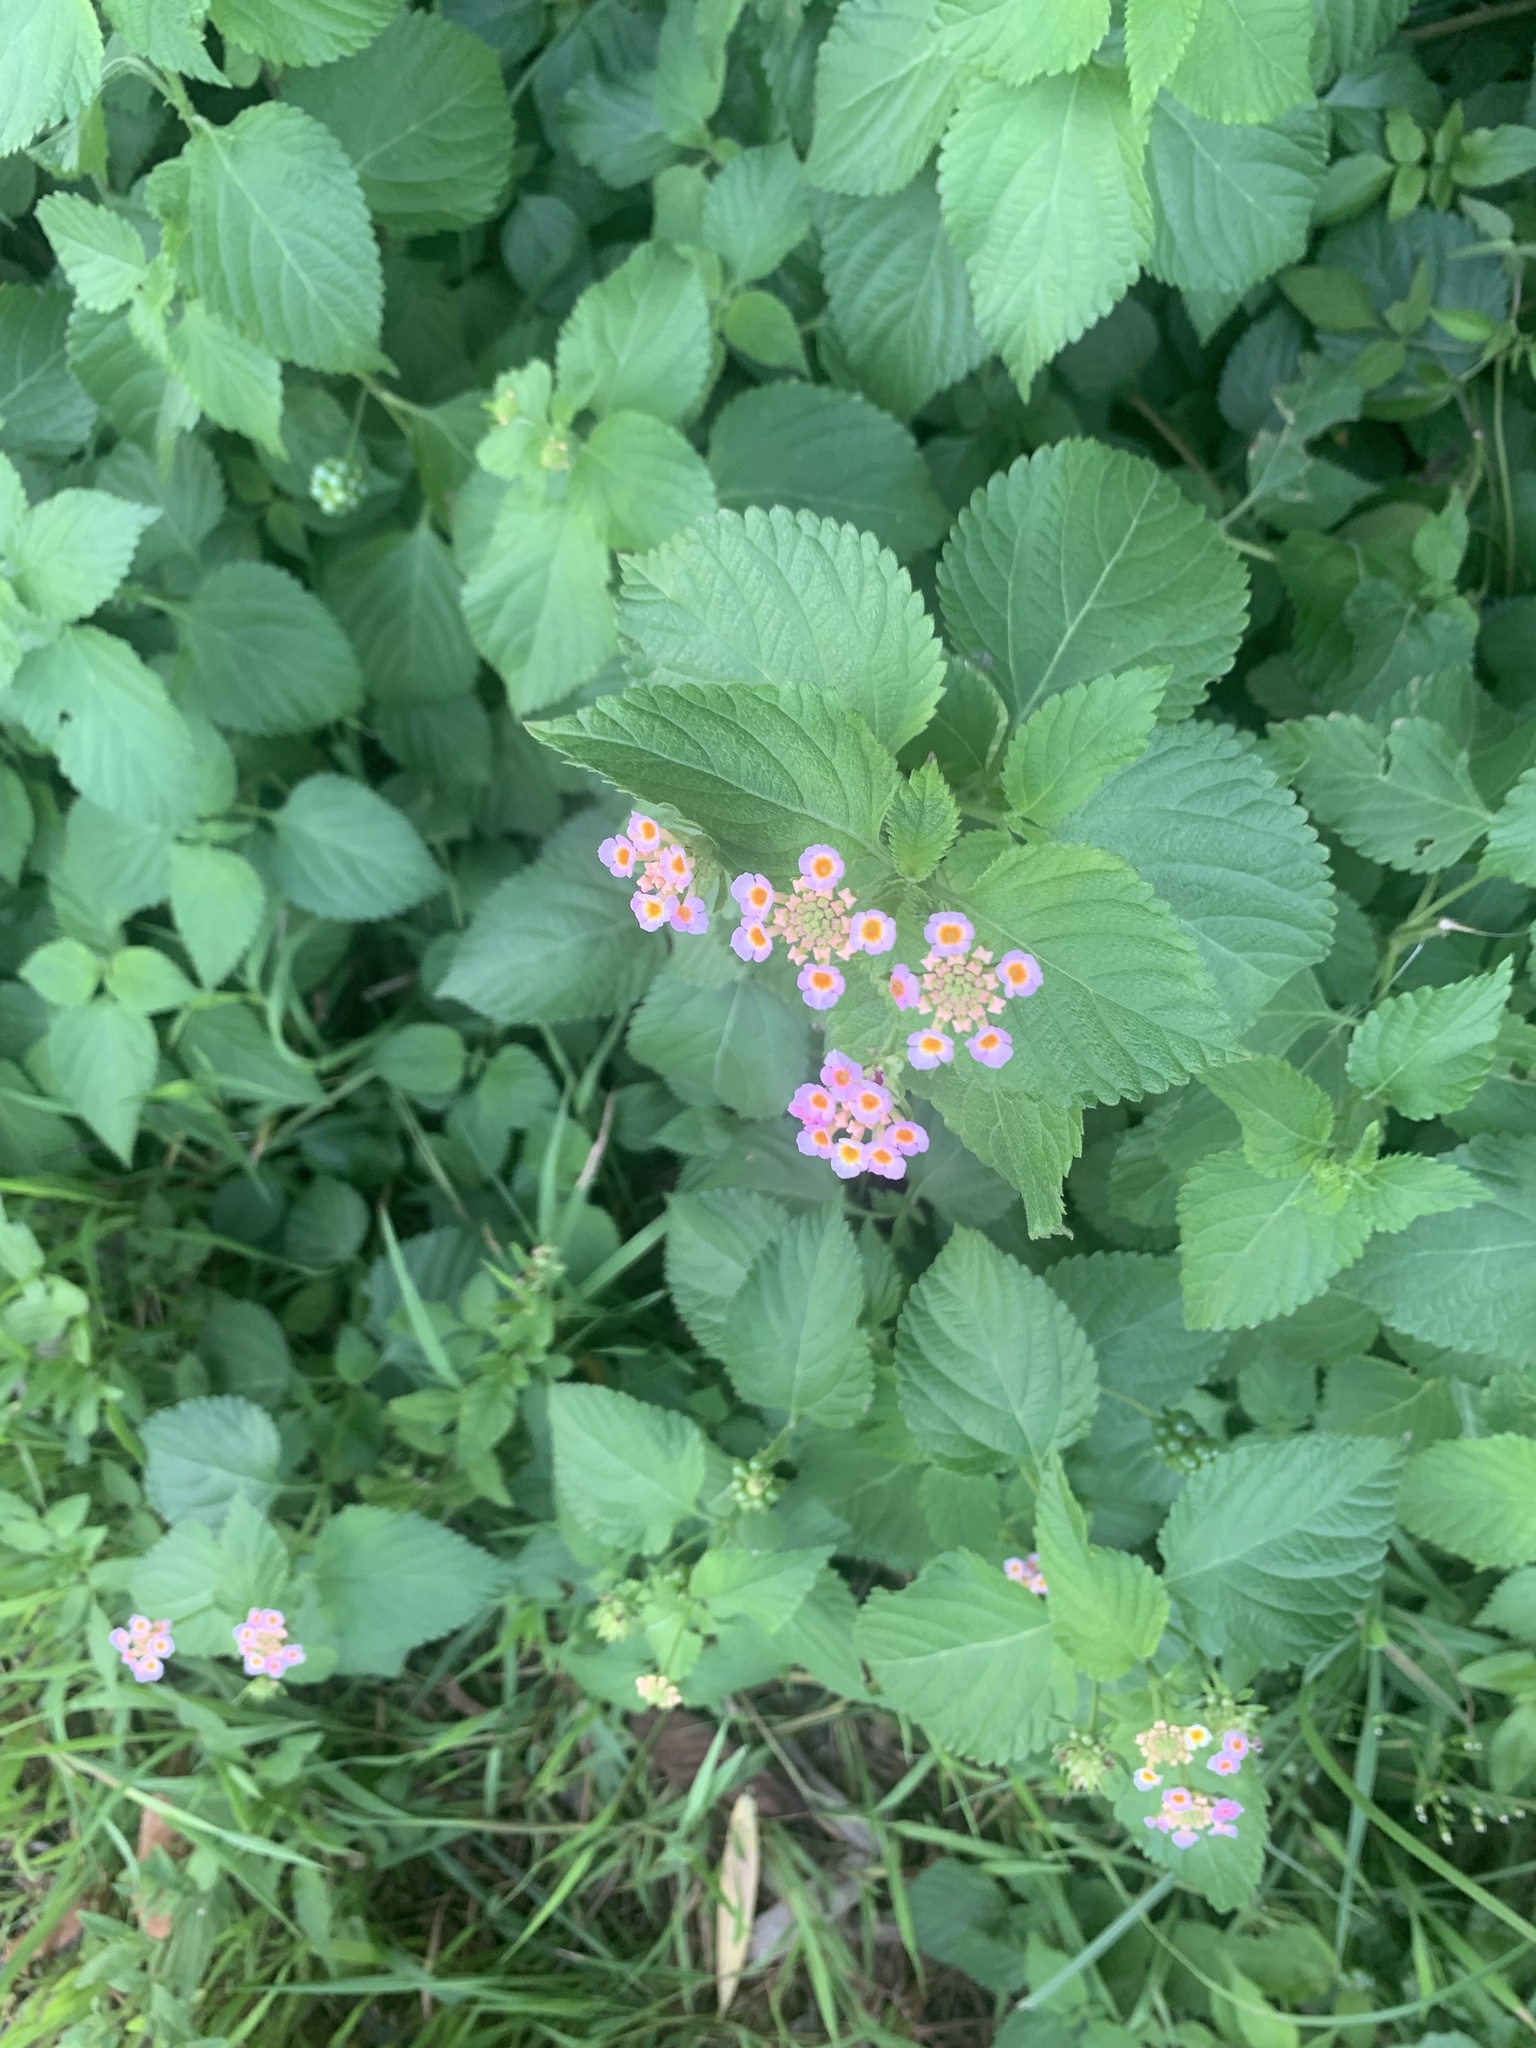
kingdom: Plantae
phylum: Tracheophyta
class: Magnoliopsida
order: Lamiales
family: Verbenaceae
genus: Lantana
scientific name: Lantana camara
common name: Lantana
